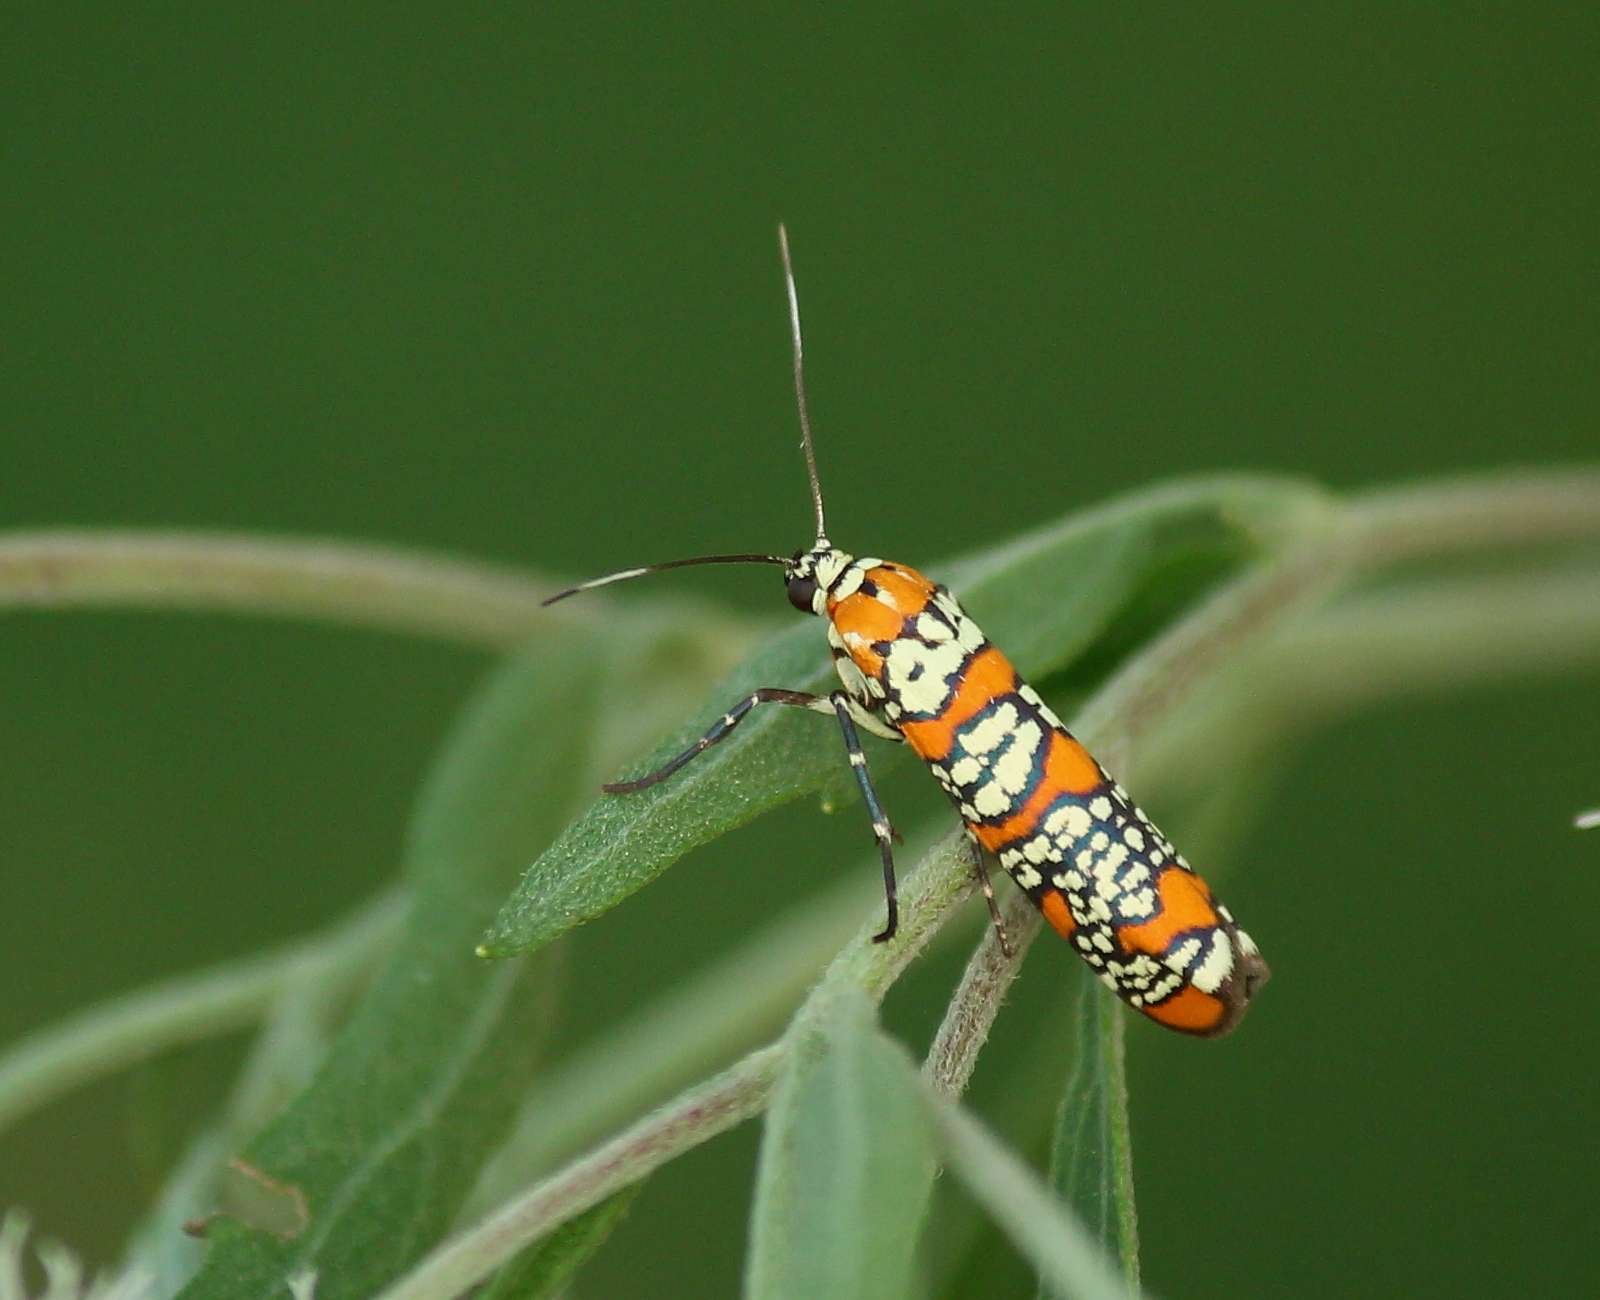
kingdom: Animalia
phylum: Arthropoda
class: Insecta
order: Lepidoptera
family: Attevidae
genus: Atteva
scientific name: Atteva punctella
